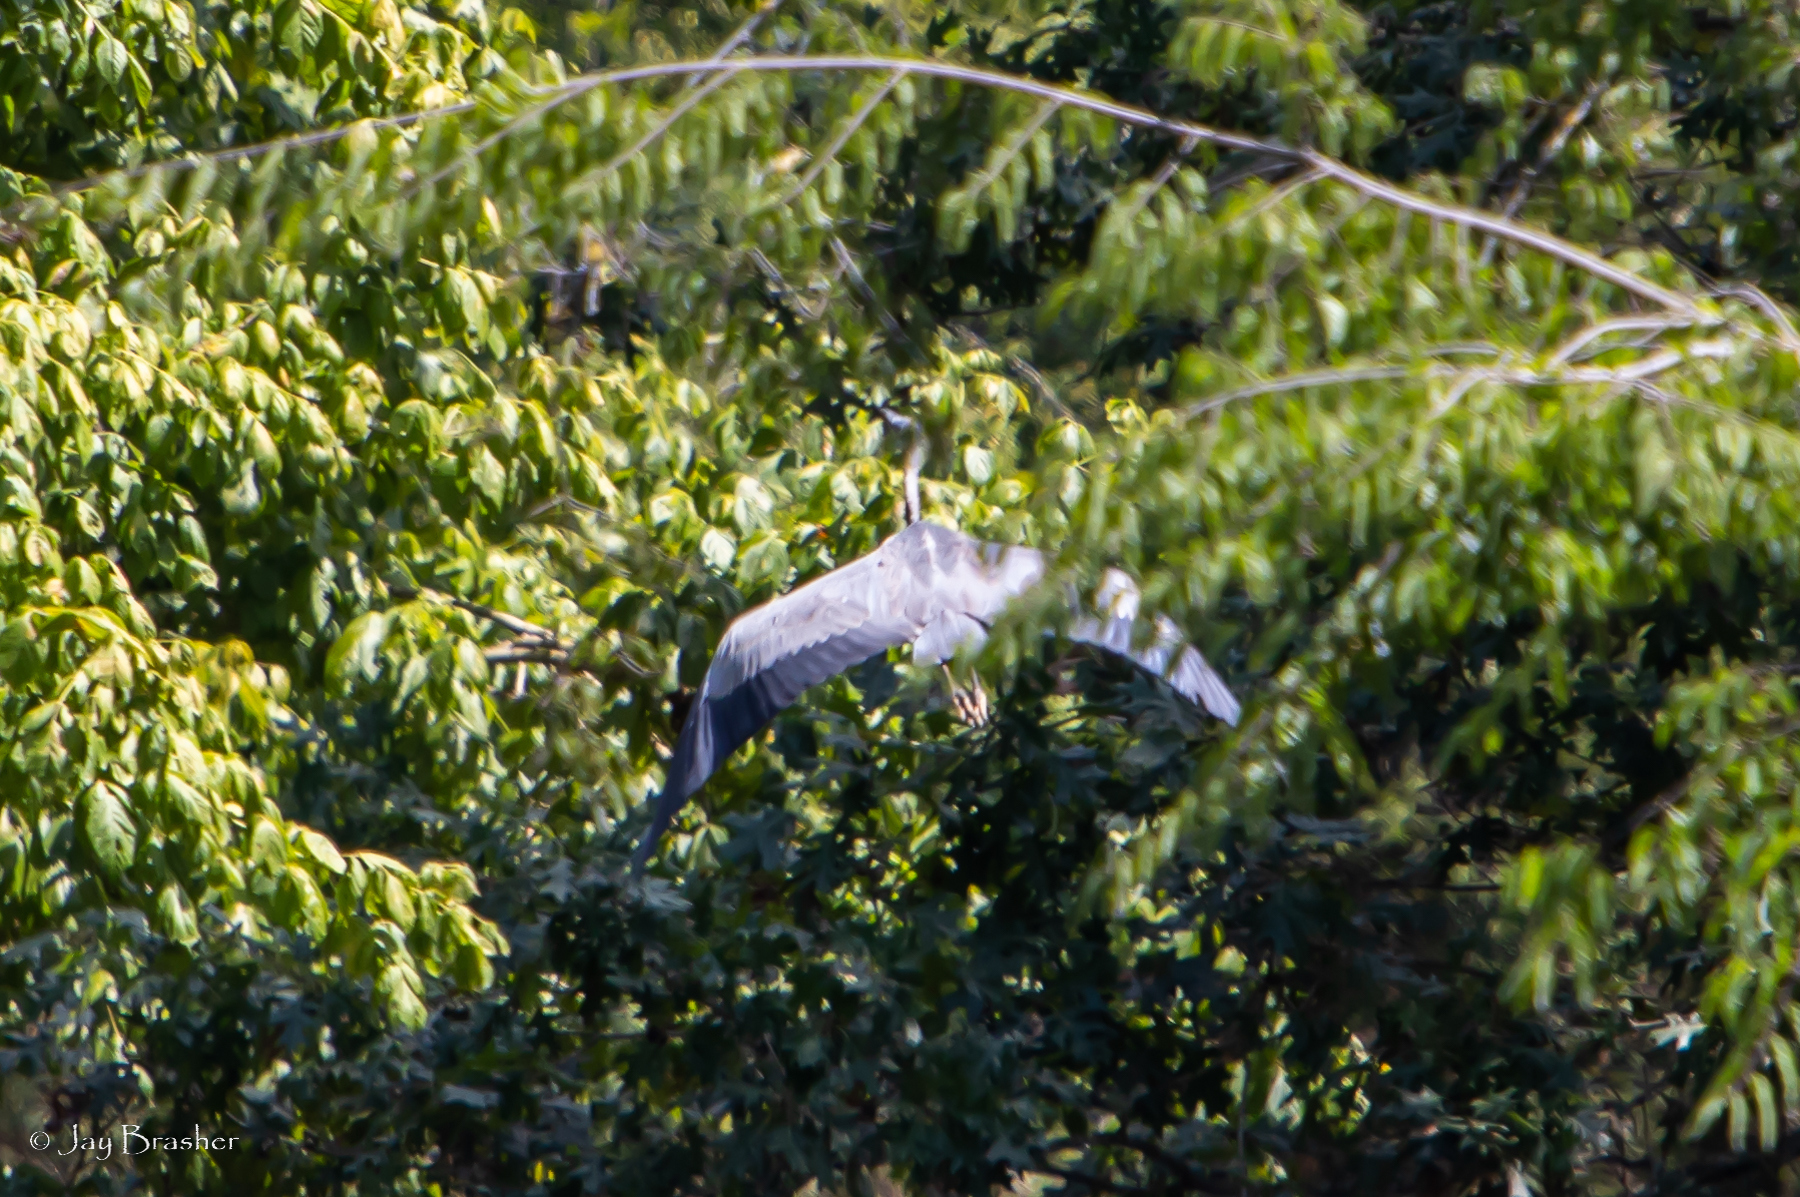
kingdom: Animalia
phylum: Chordata
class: Aves
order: Pelecaniformes
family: Ardeidae
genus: Ardea
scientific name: Ardea herodias
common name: Great blue heron
